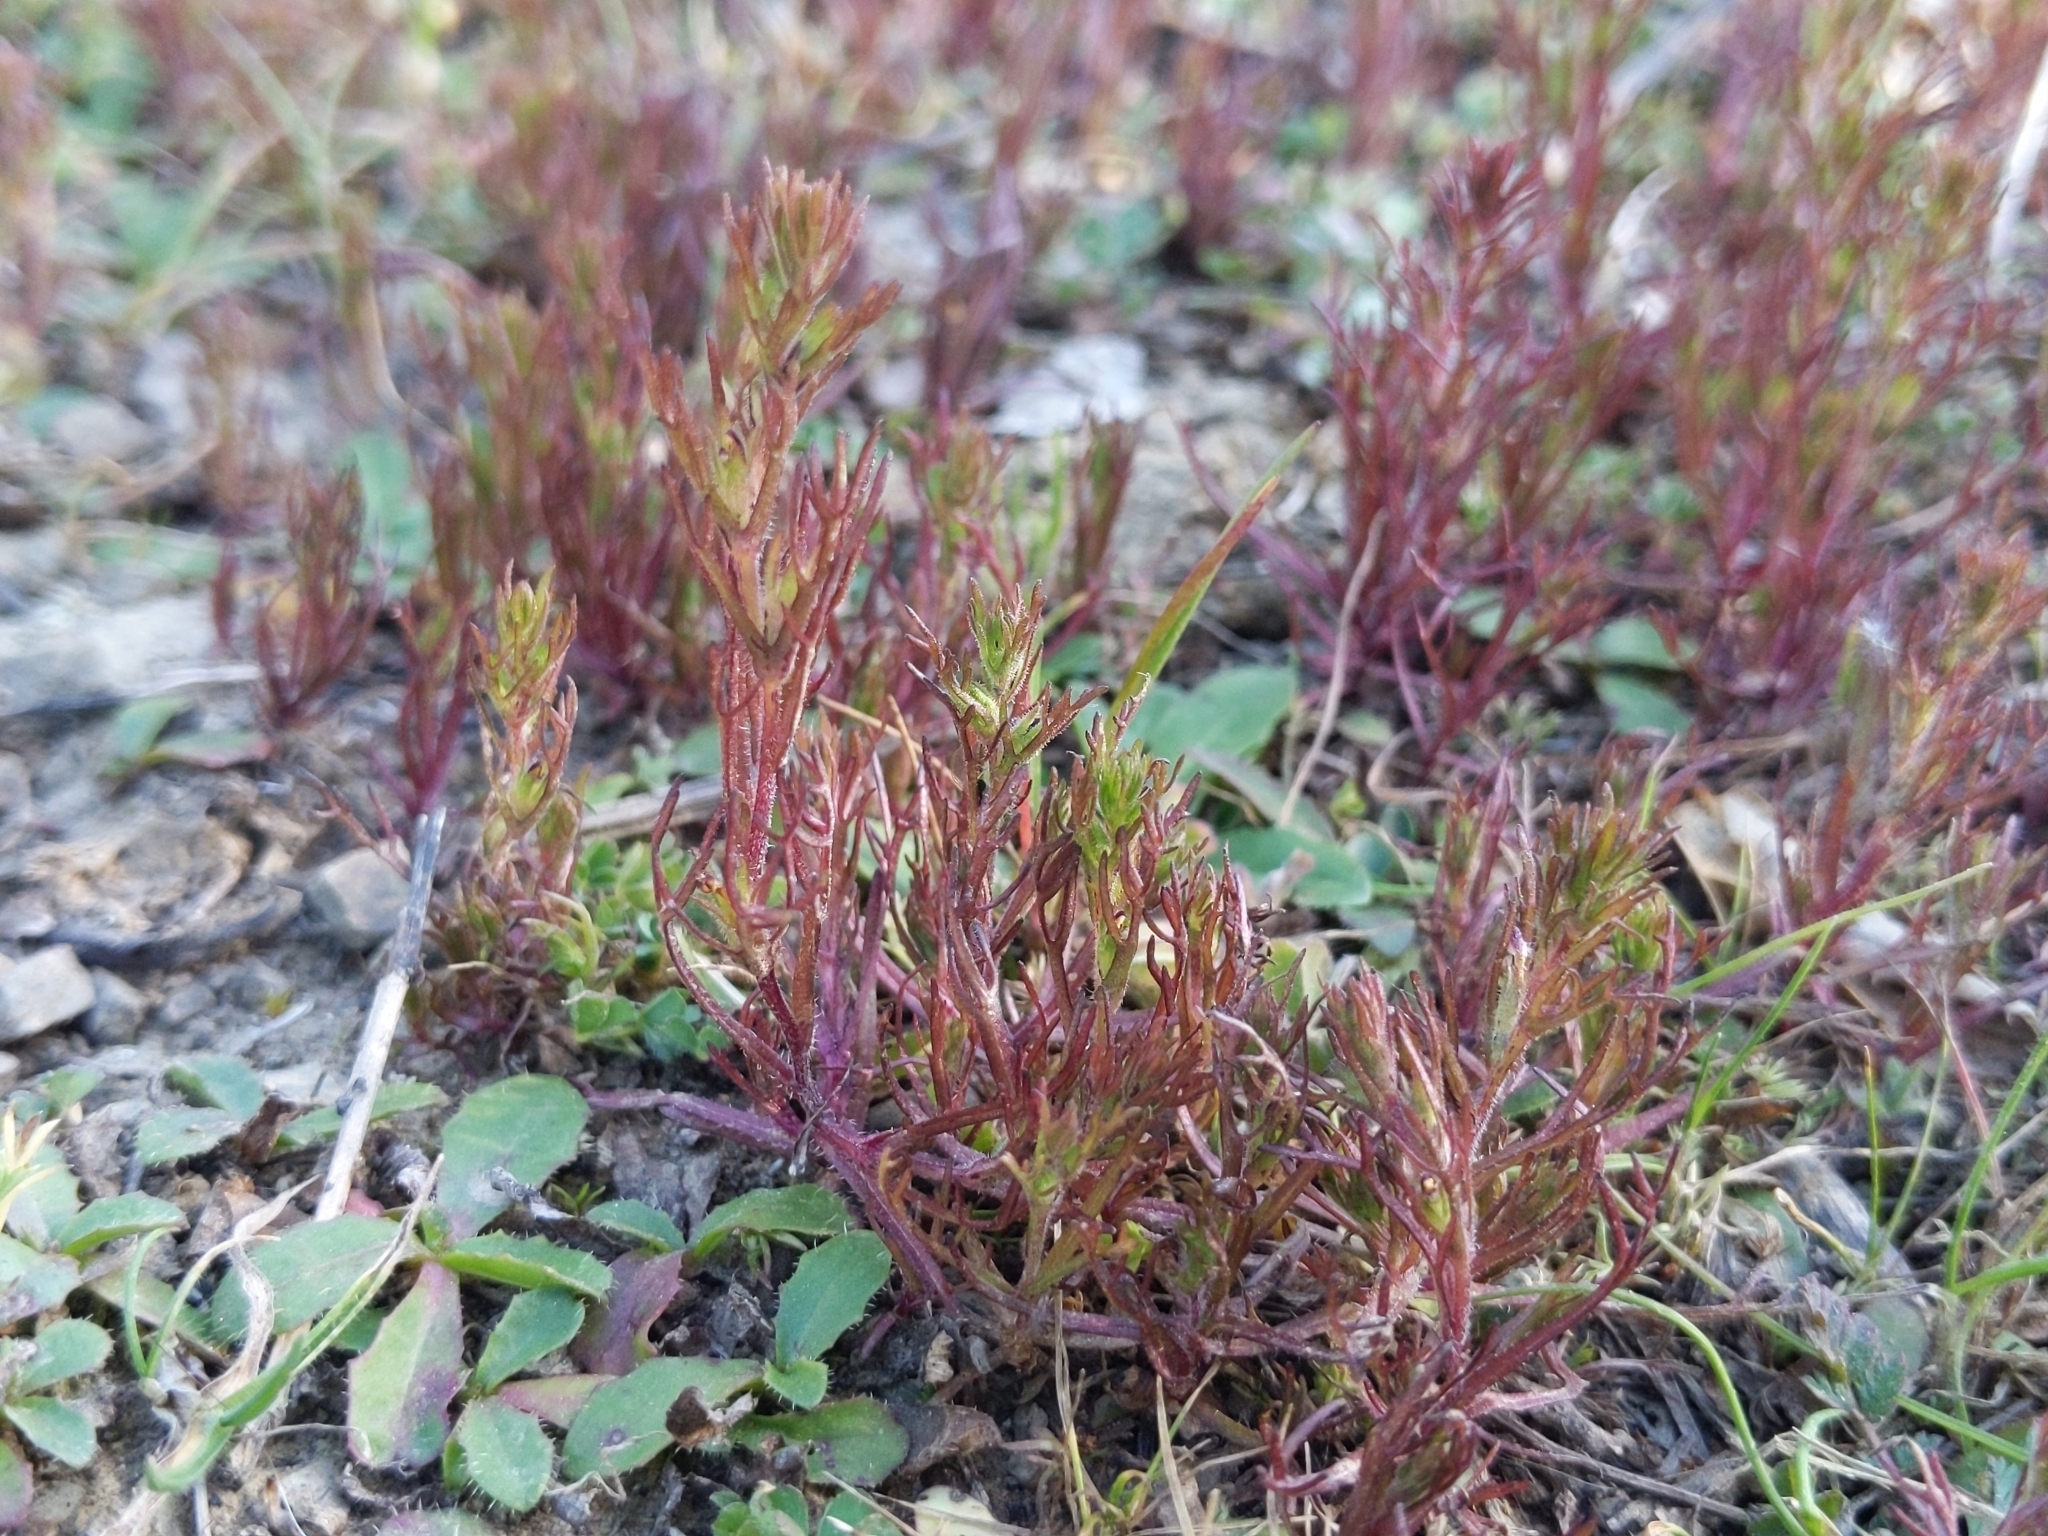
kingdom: Plantae
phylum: Tracheophyta
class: Magnoliopsida
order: Lamiales
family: Orobanchaceae
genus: Triphysaria
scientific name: Triphysaria pusilla
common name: Dwarf false owl-clover
